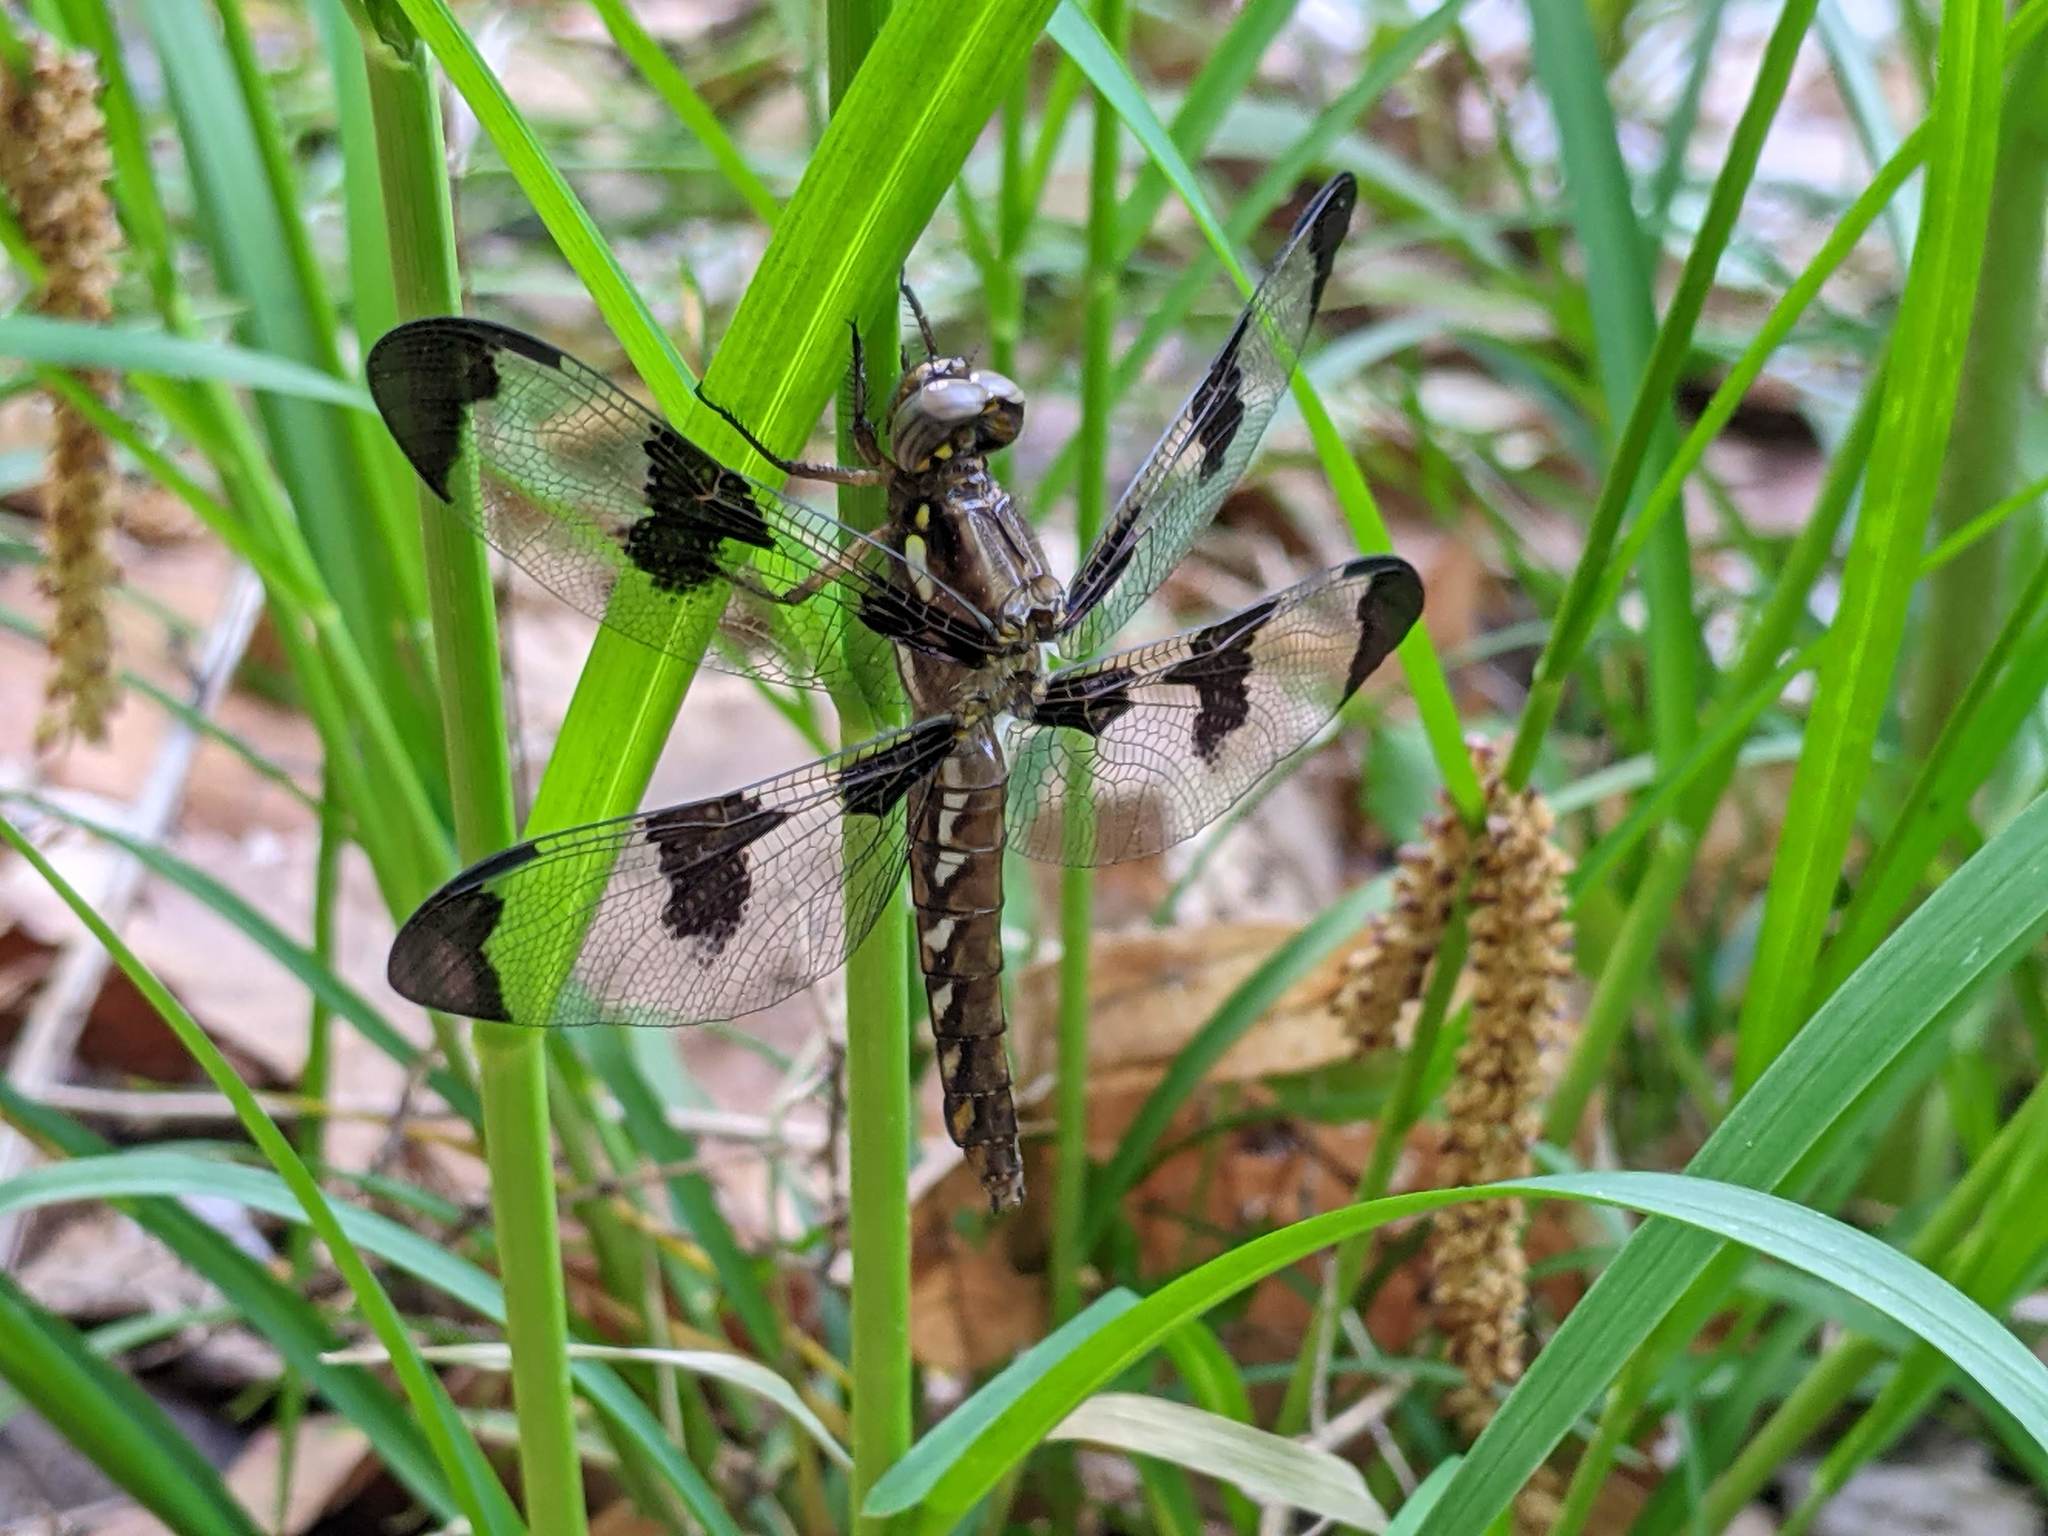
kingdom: Animalia
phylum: Arthropoda
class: Insecta
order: Odonata
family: Libellulidae
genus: Plathemis
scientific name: Plathemis lydia
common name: Common whitetail
